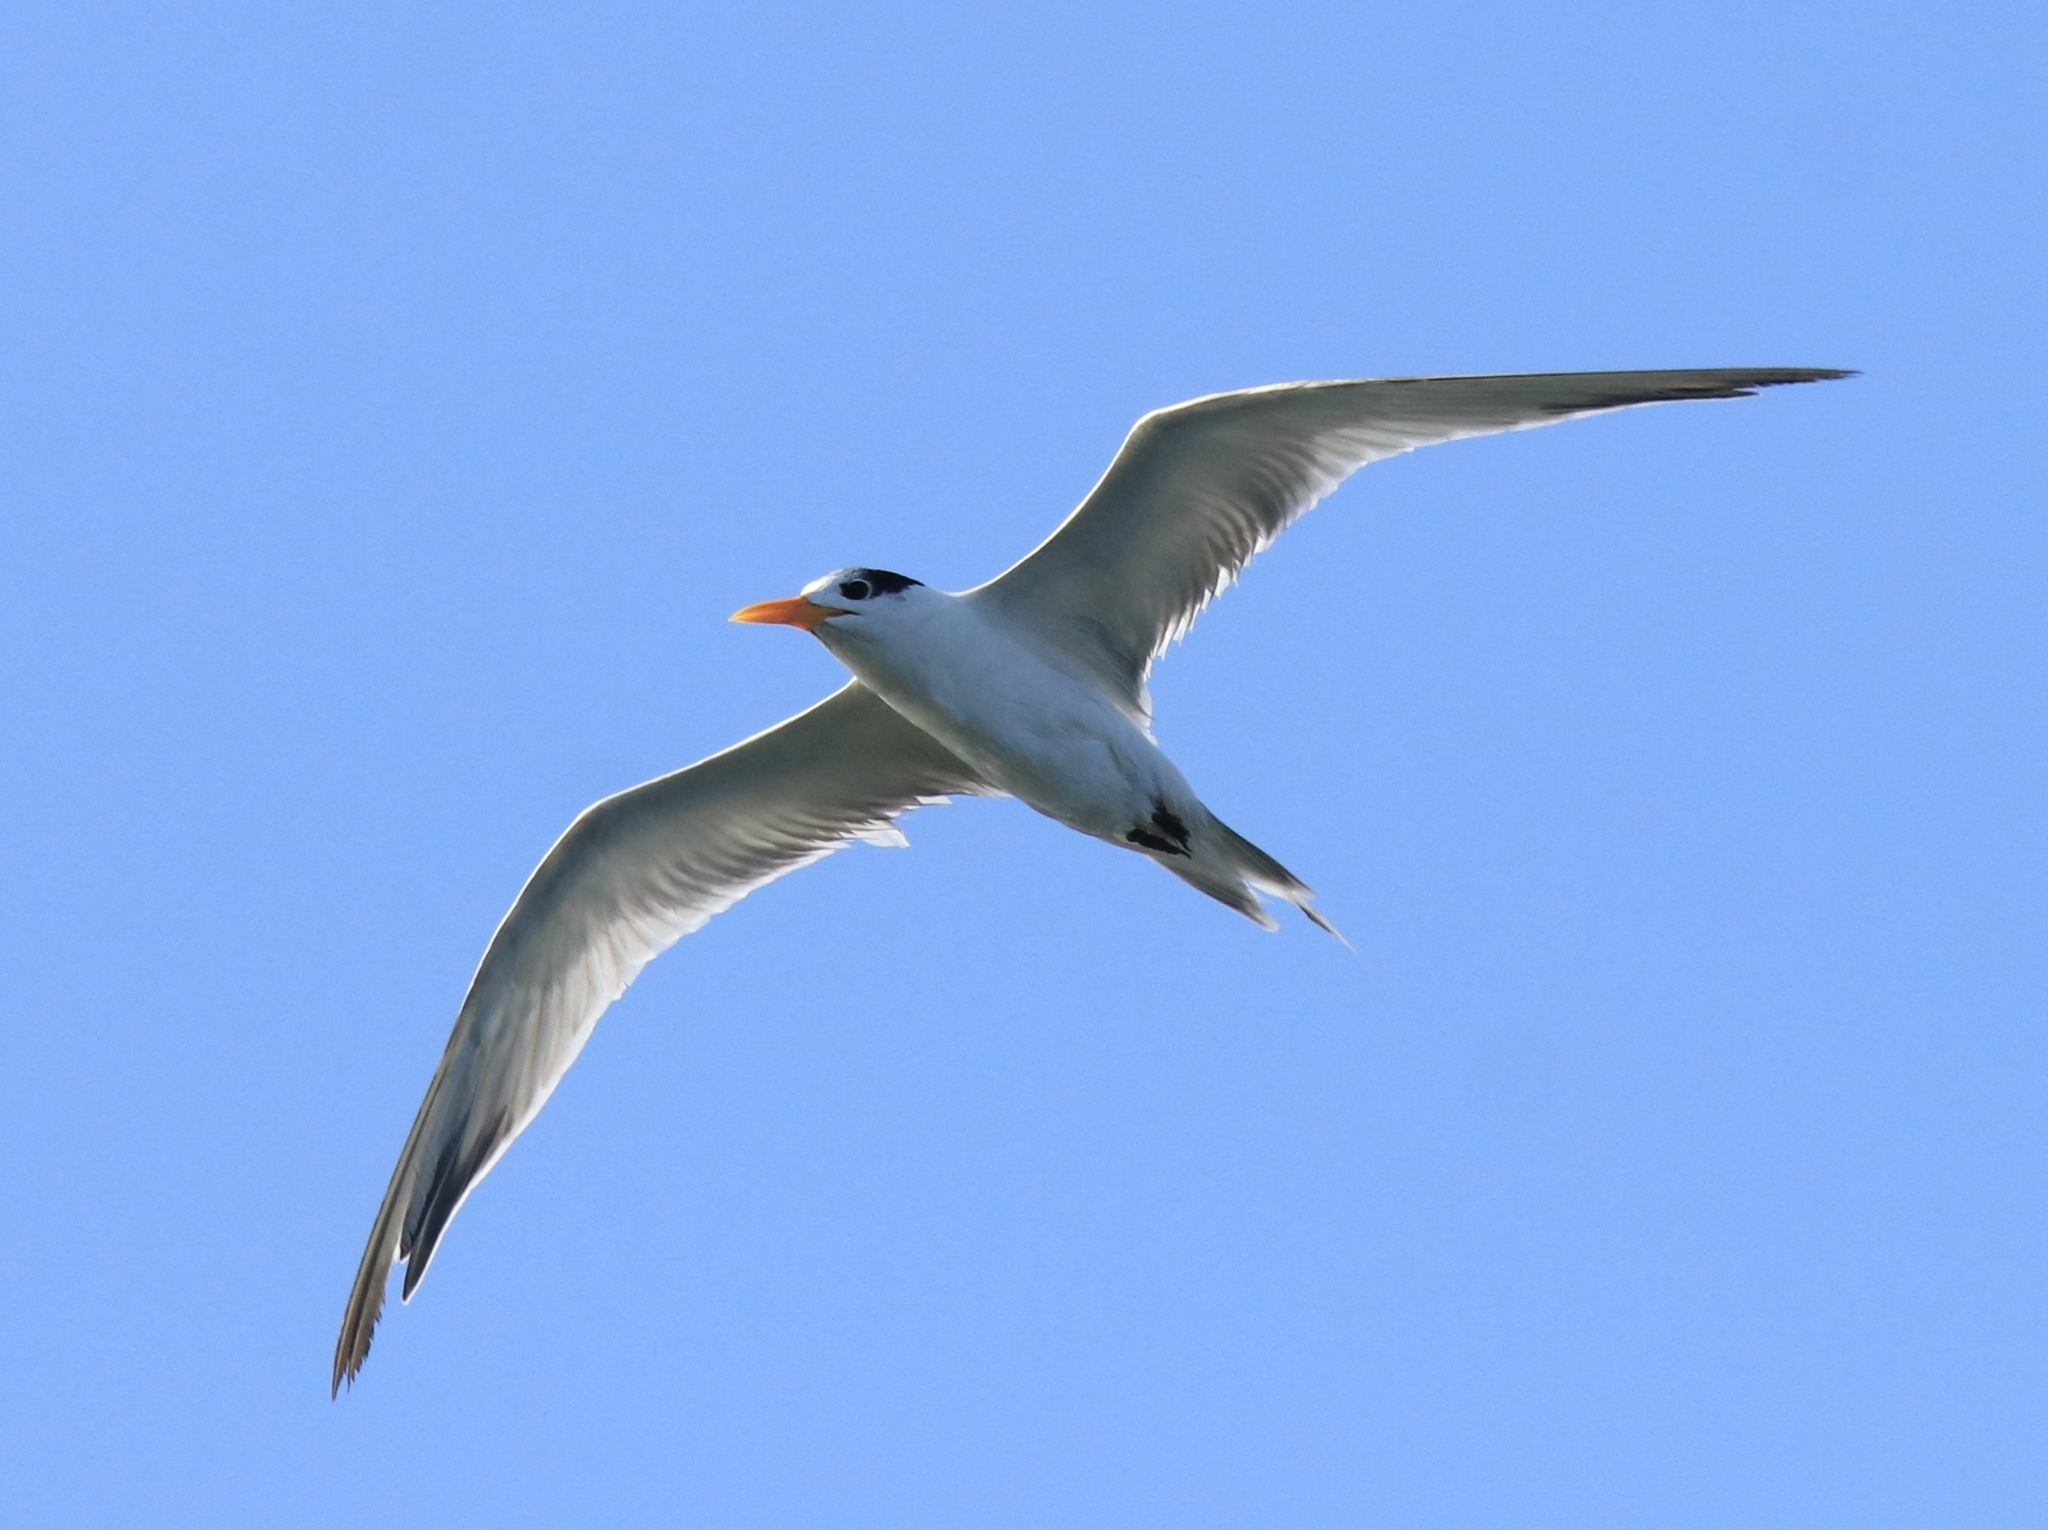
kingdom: Animalia
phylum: Chordata
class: Aves
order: Charadriiformes
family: Laridae
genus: Thalasseus
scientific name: Thalasseus bengalensis
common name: Lesser crested tern
